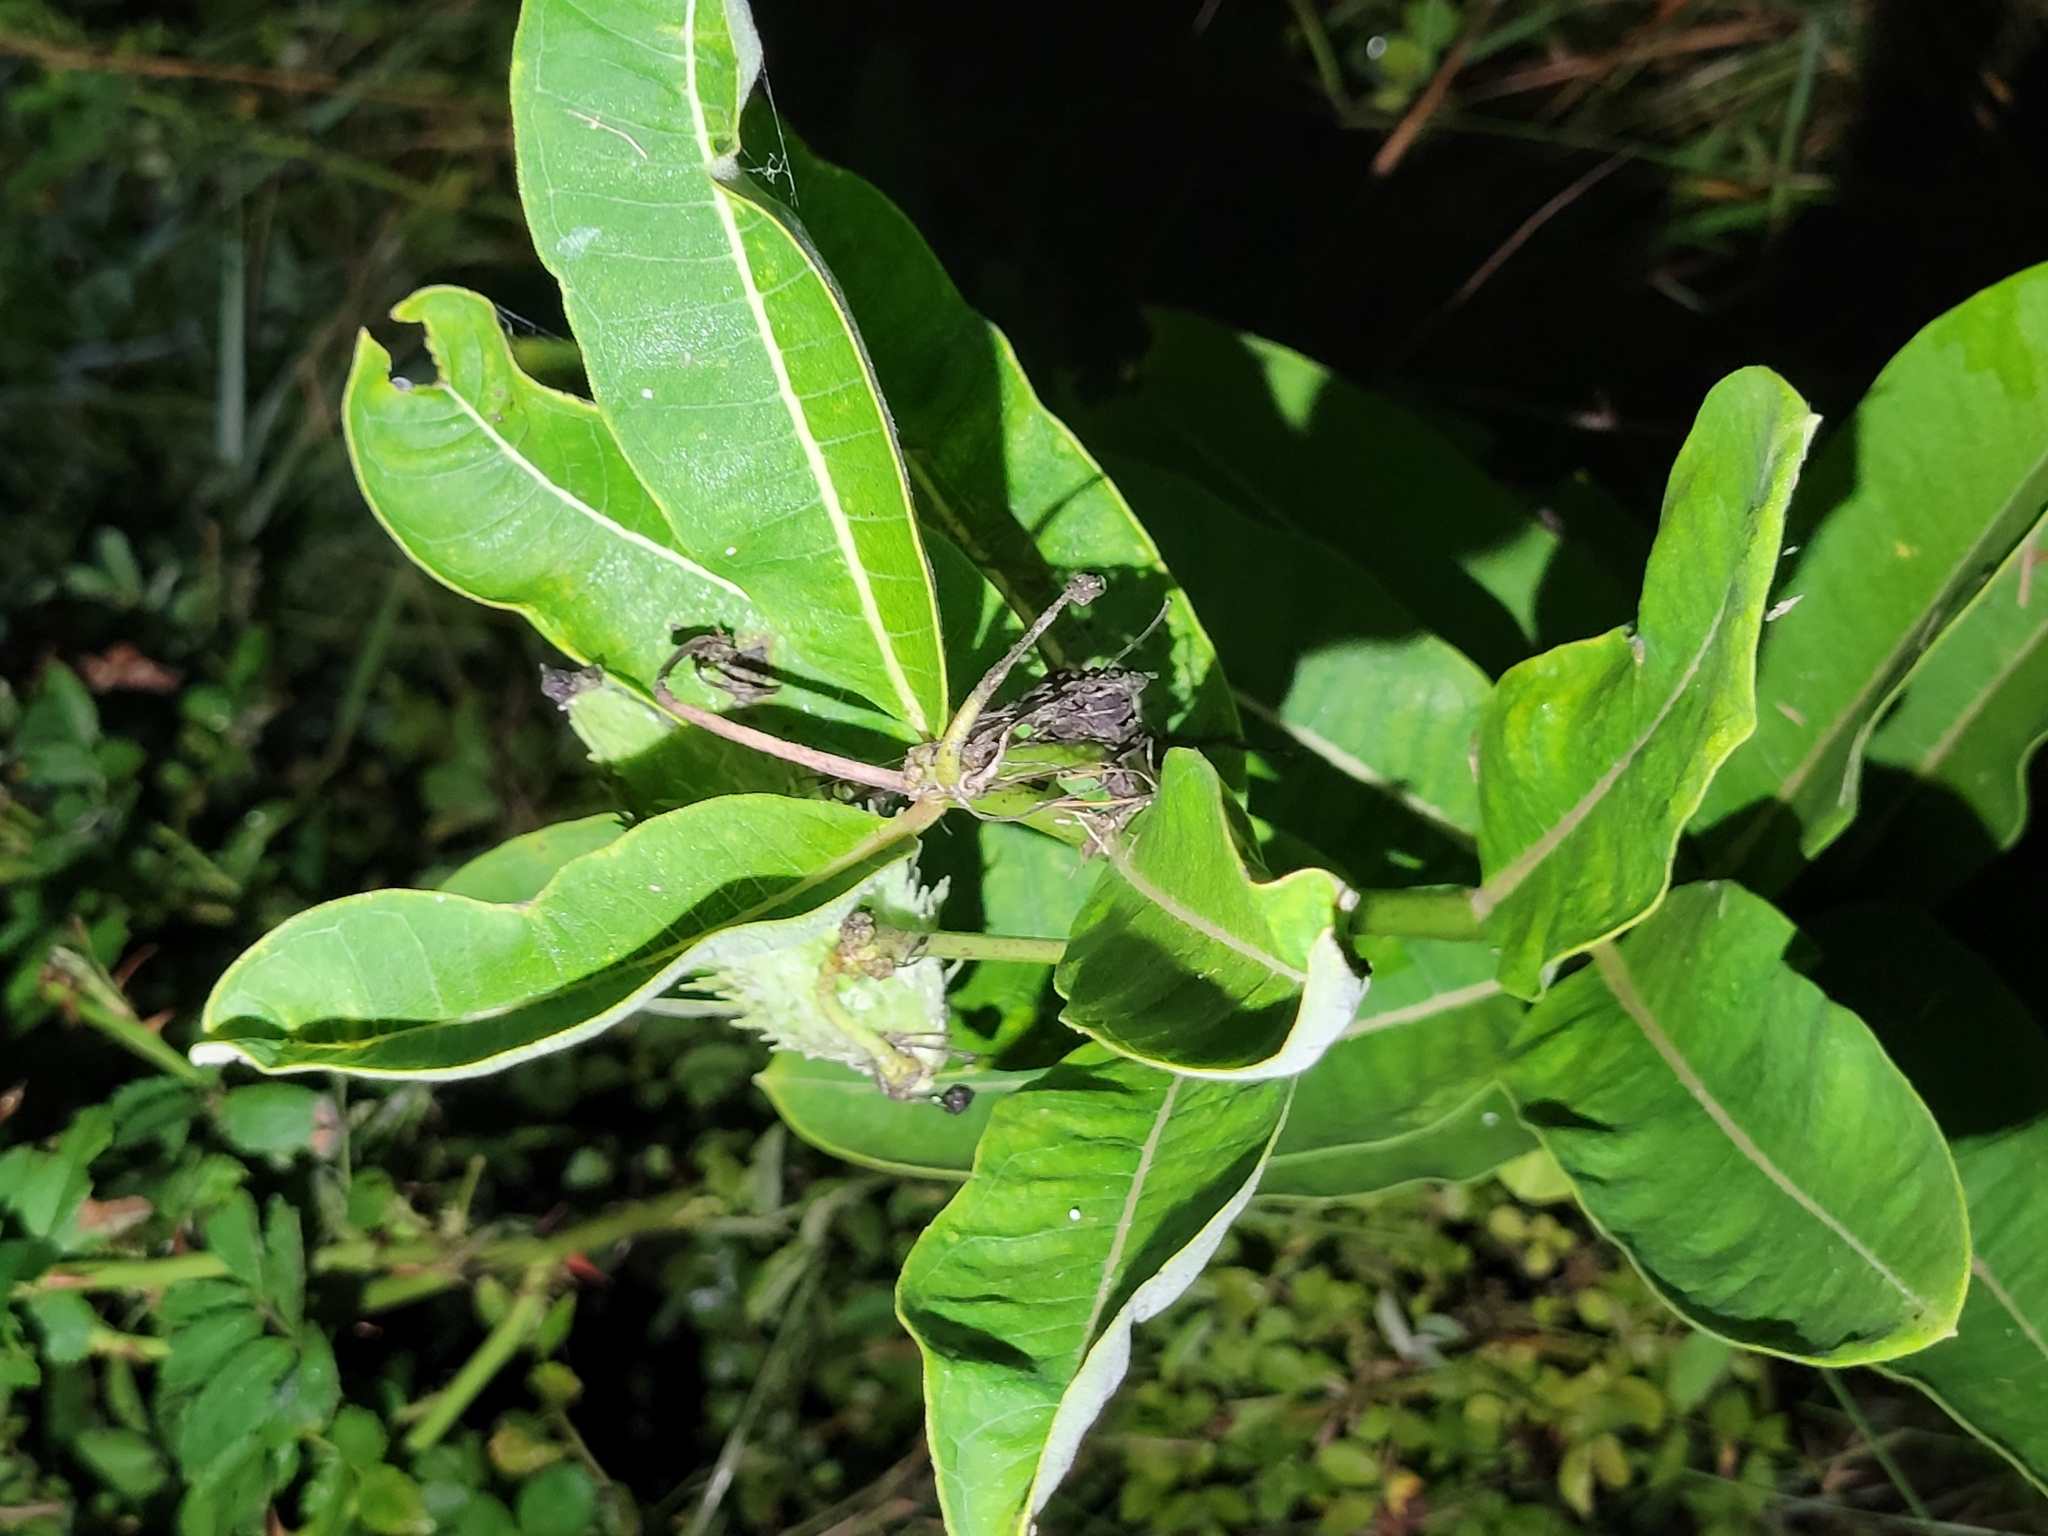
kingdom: Plantae
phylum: Tracheophyta
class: Magnoliopsida
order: Gentianales
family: Apocynaceae
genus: Asclepias
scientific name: Asclepias syriaca
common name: Common milkweed
